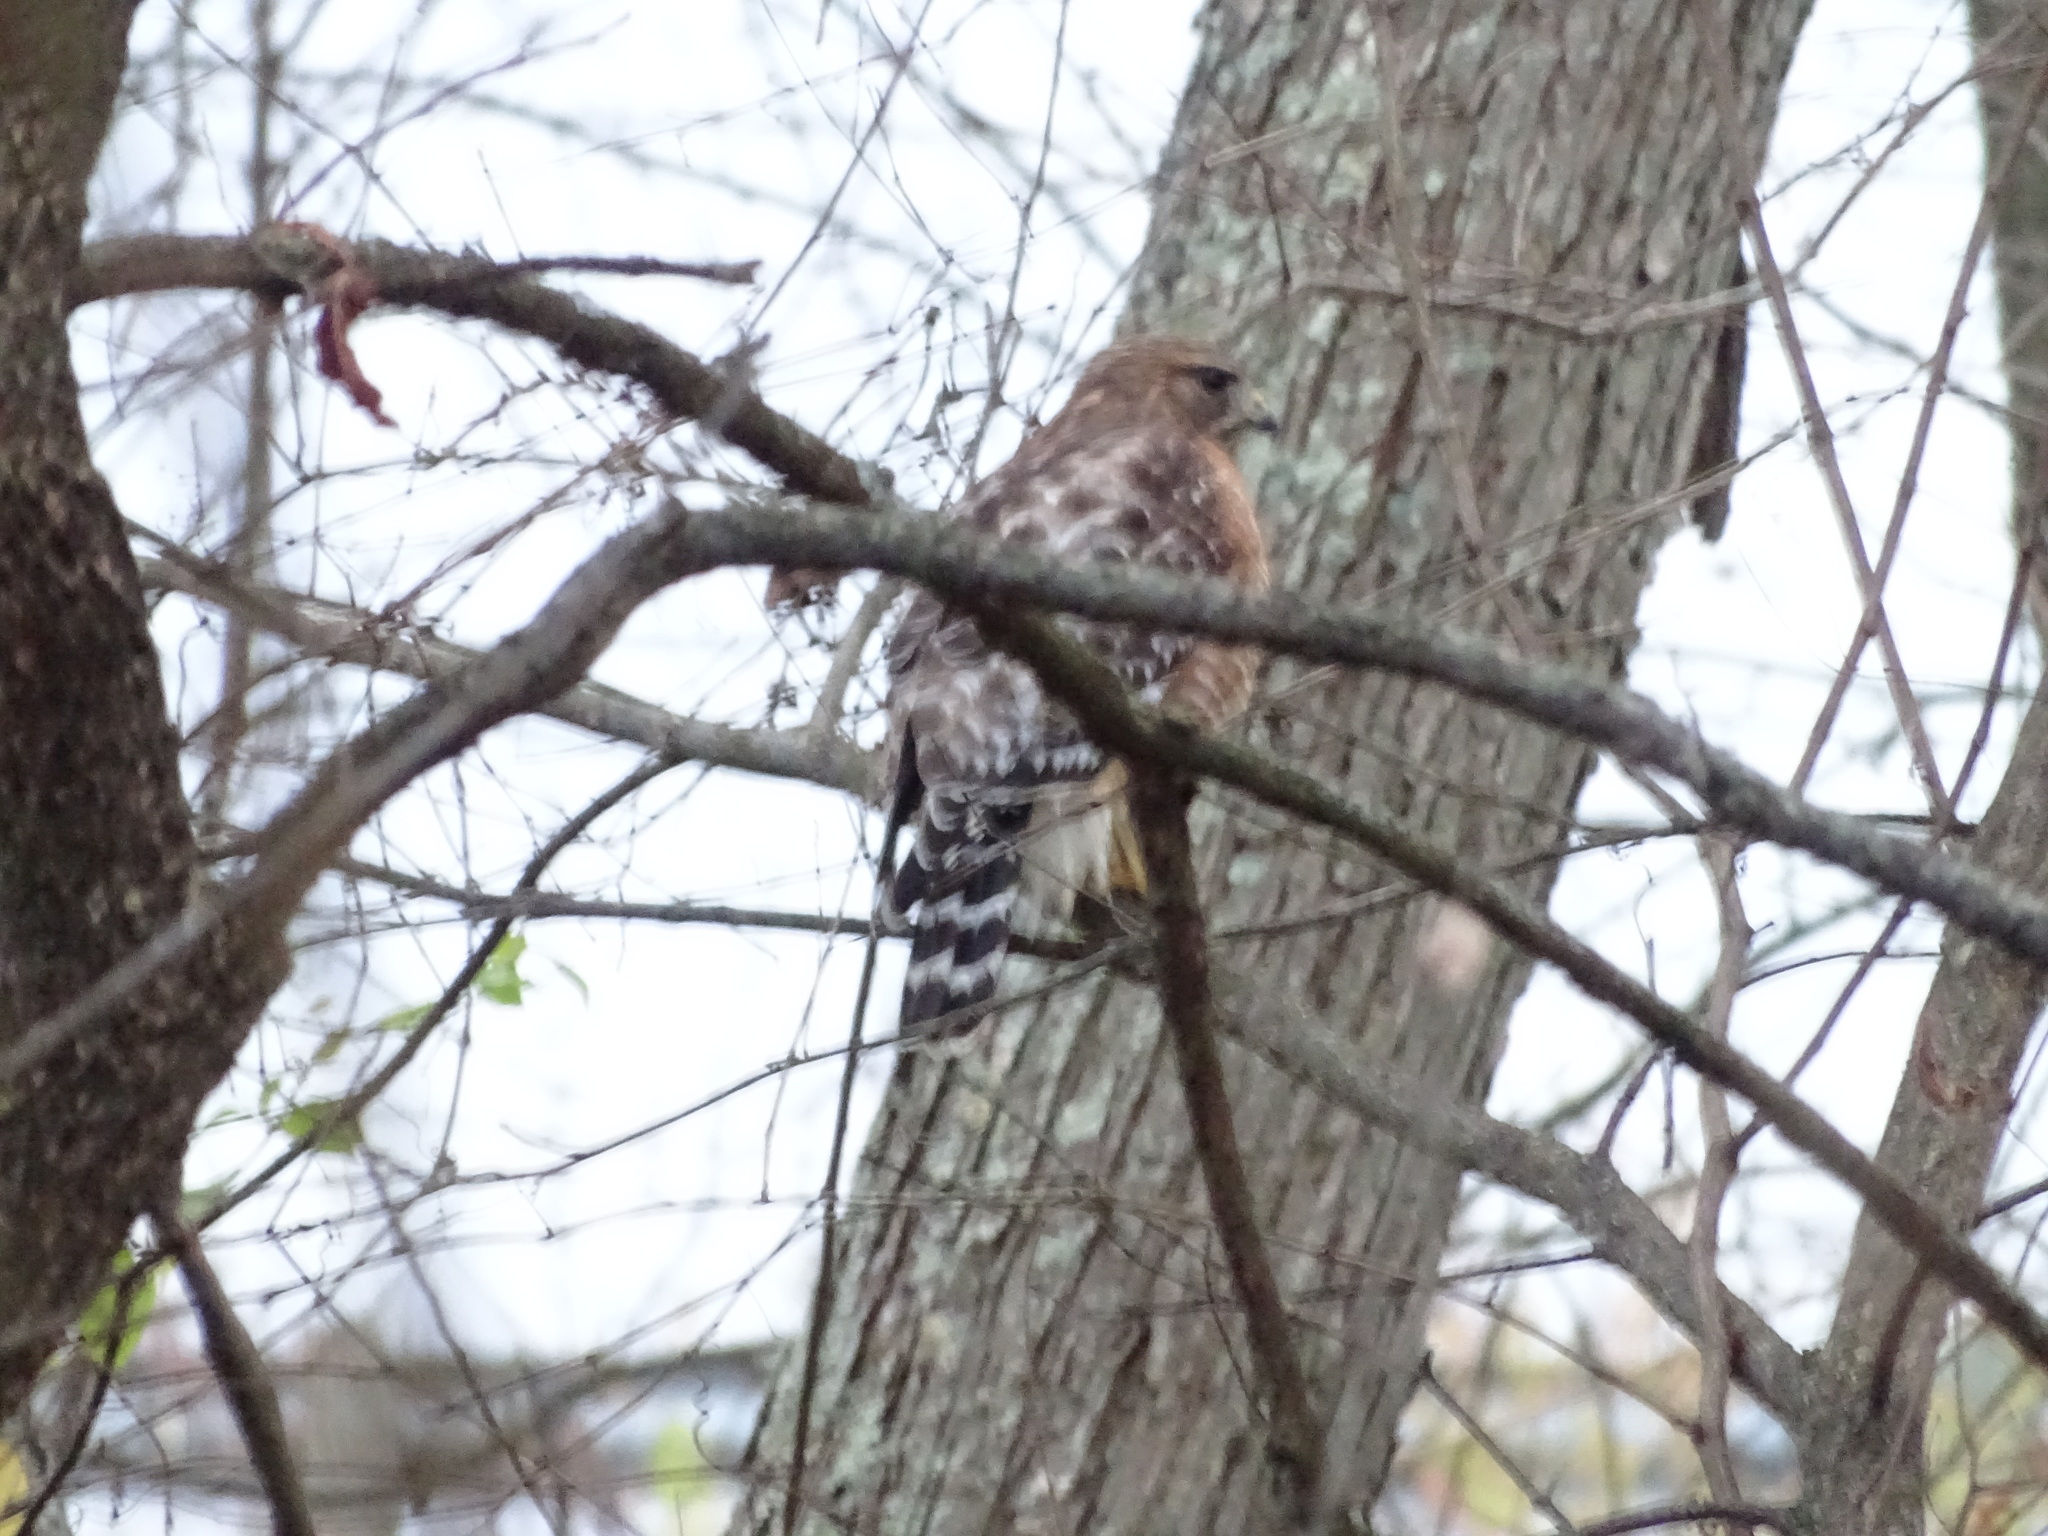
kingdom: Animalia
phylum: Chordata
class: Aves
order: Accipitriformes
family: Accipitridae
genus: Buteo
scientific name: Buteo lineatus
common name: Red-shouldered hawk
